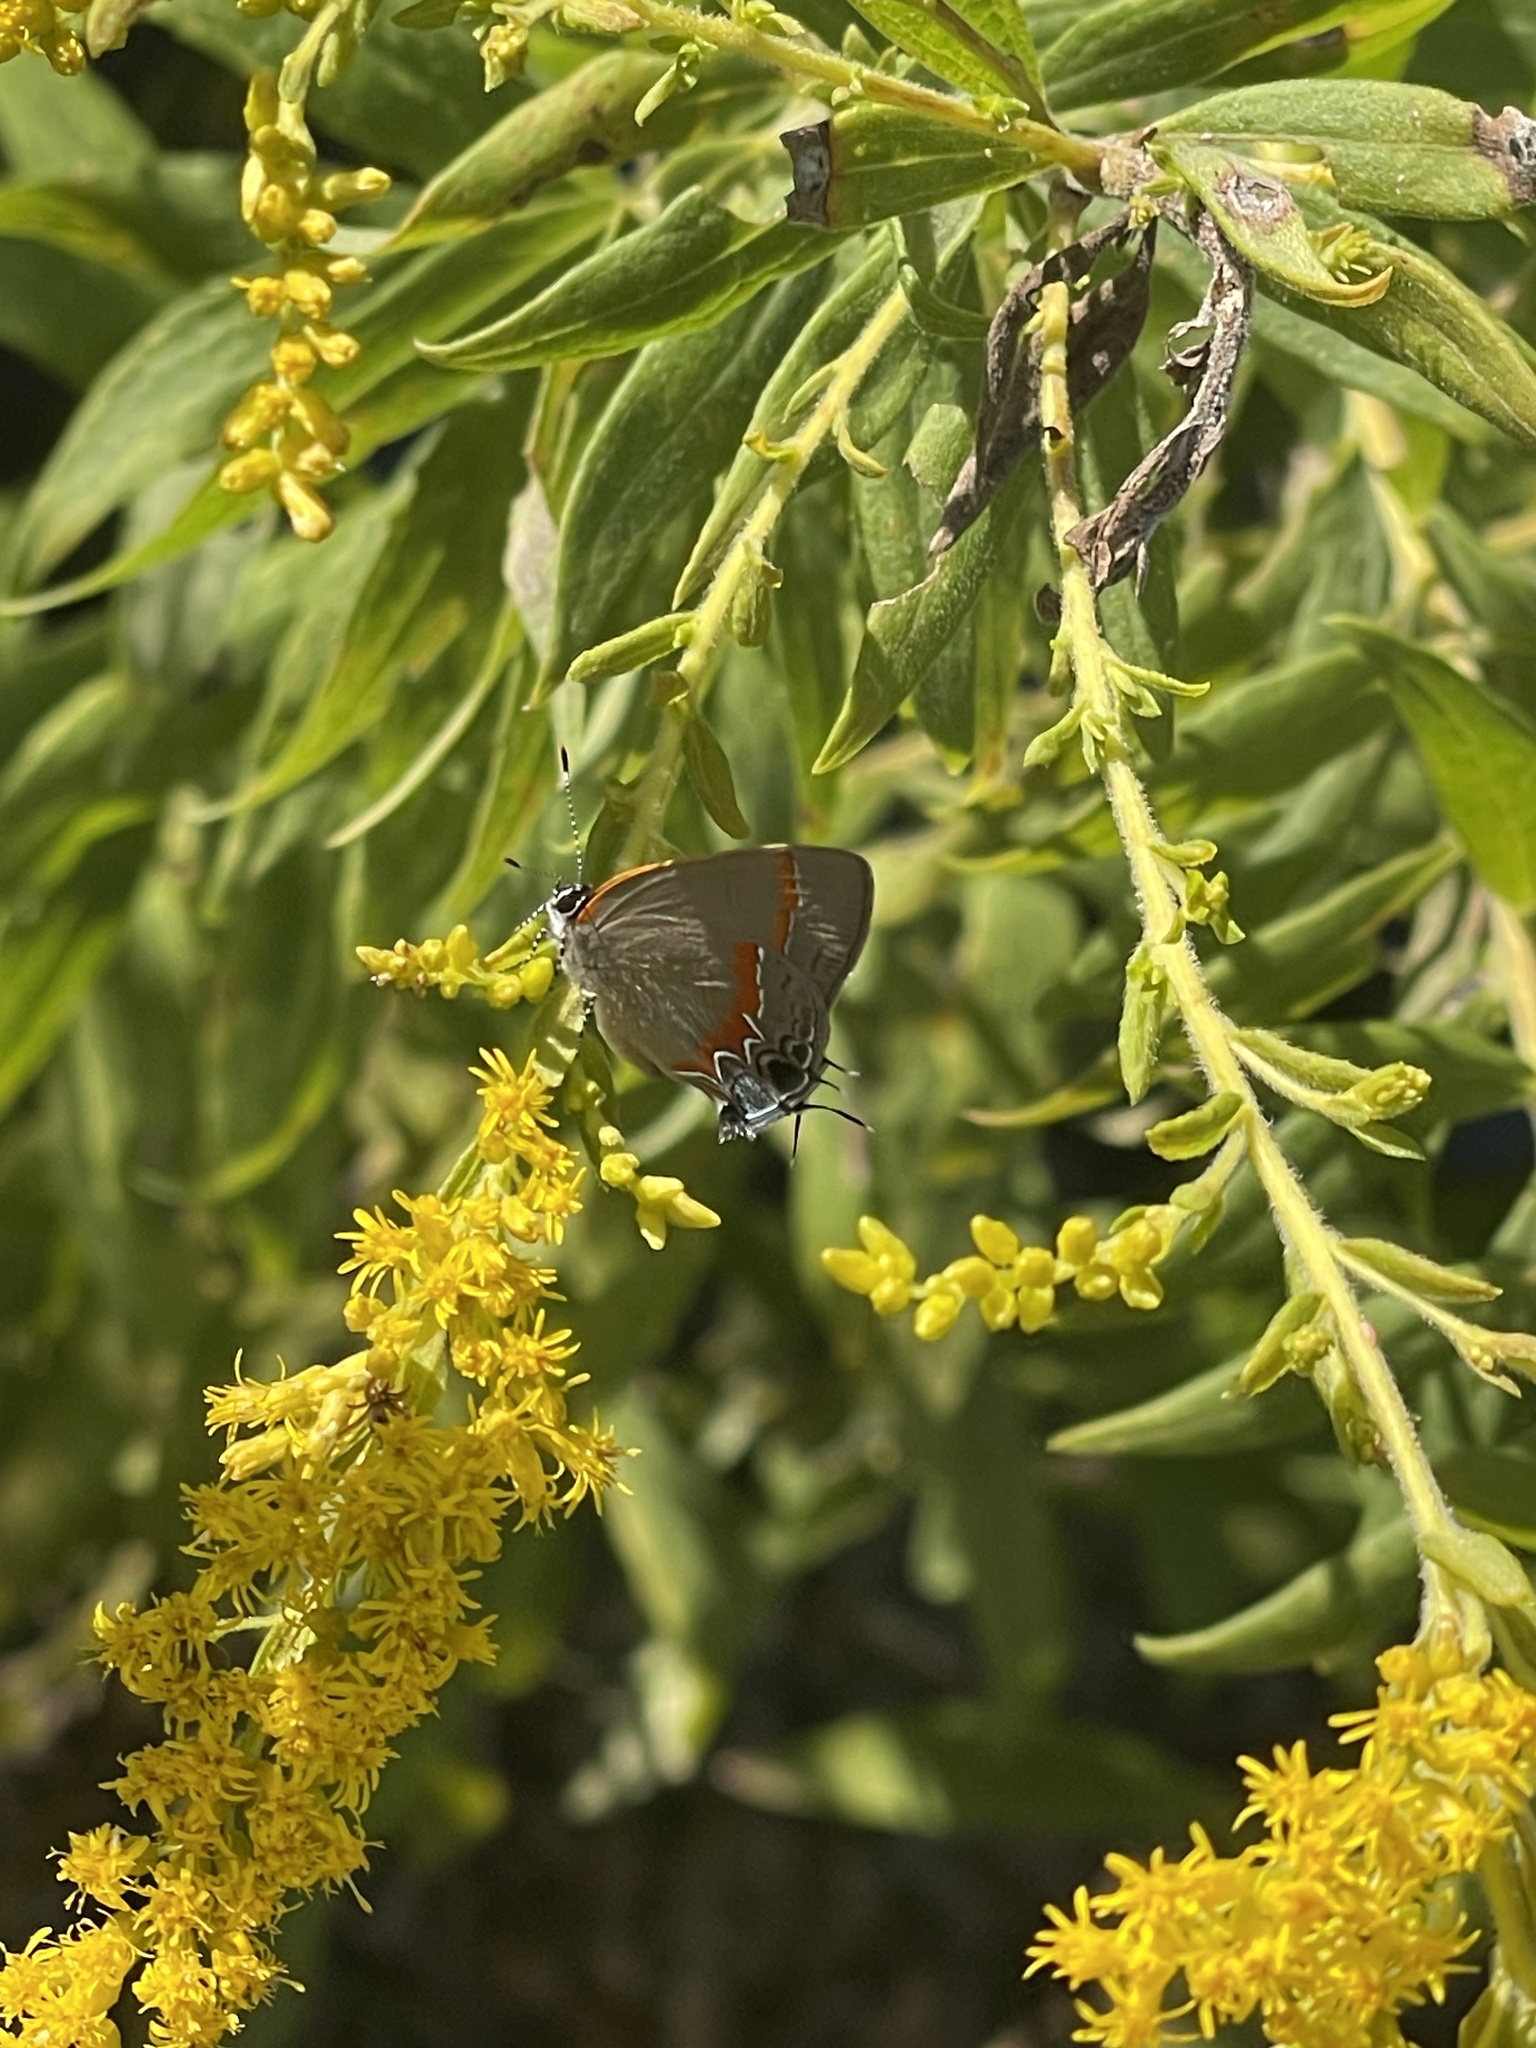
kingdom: Animalia
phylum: Arthropoda
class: Insecta
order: Lepidoptera
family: Lycaenidae
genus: Calycopis
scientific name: Calycopis cecrops
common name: Red-banded hairstreak
